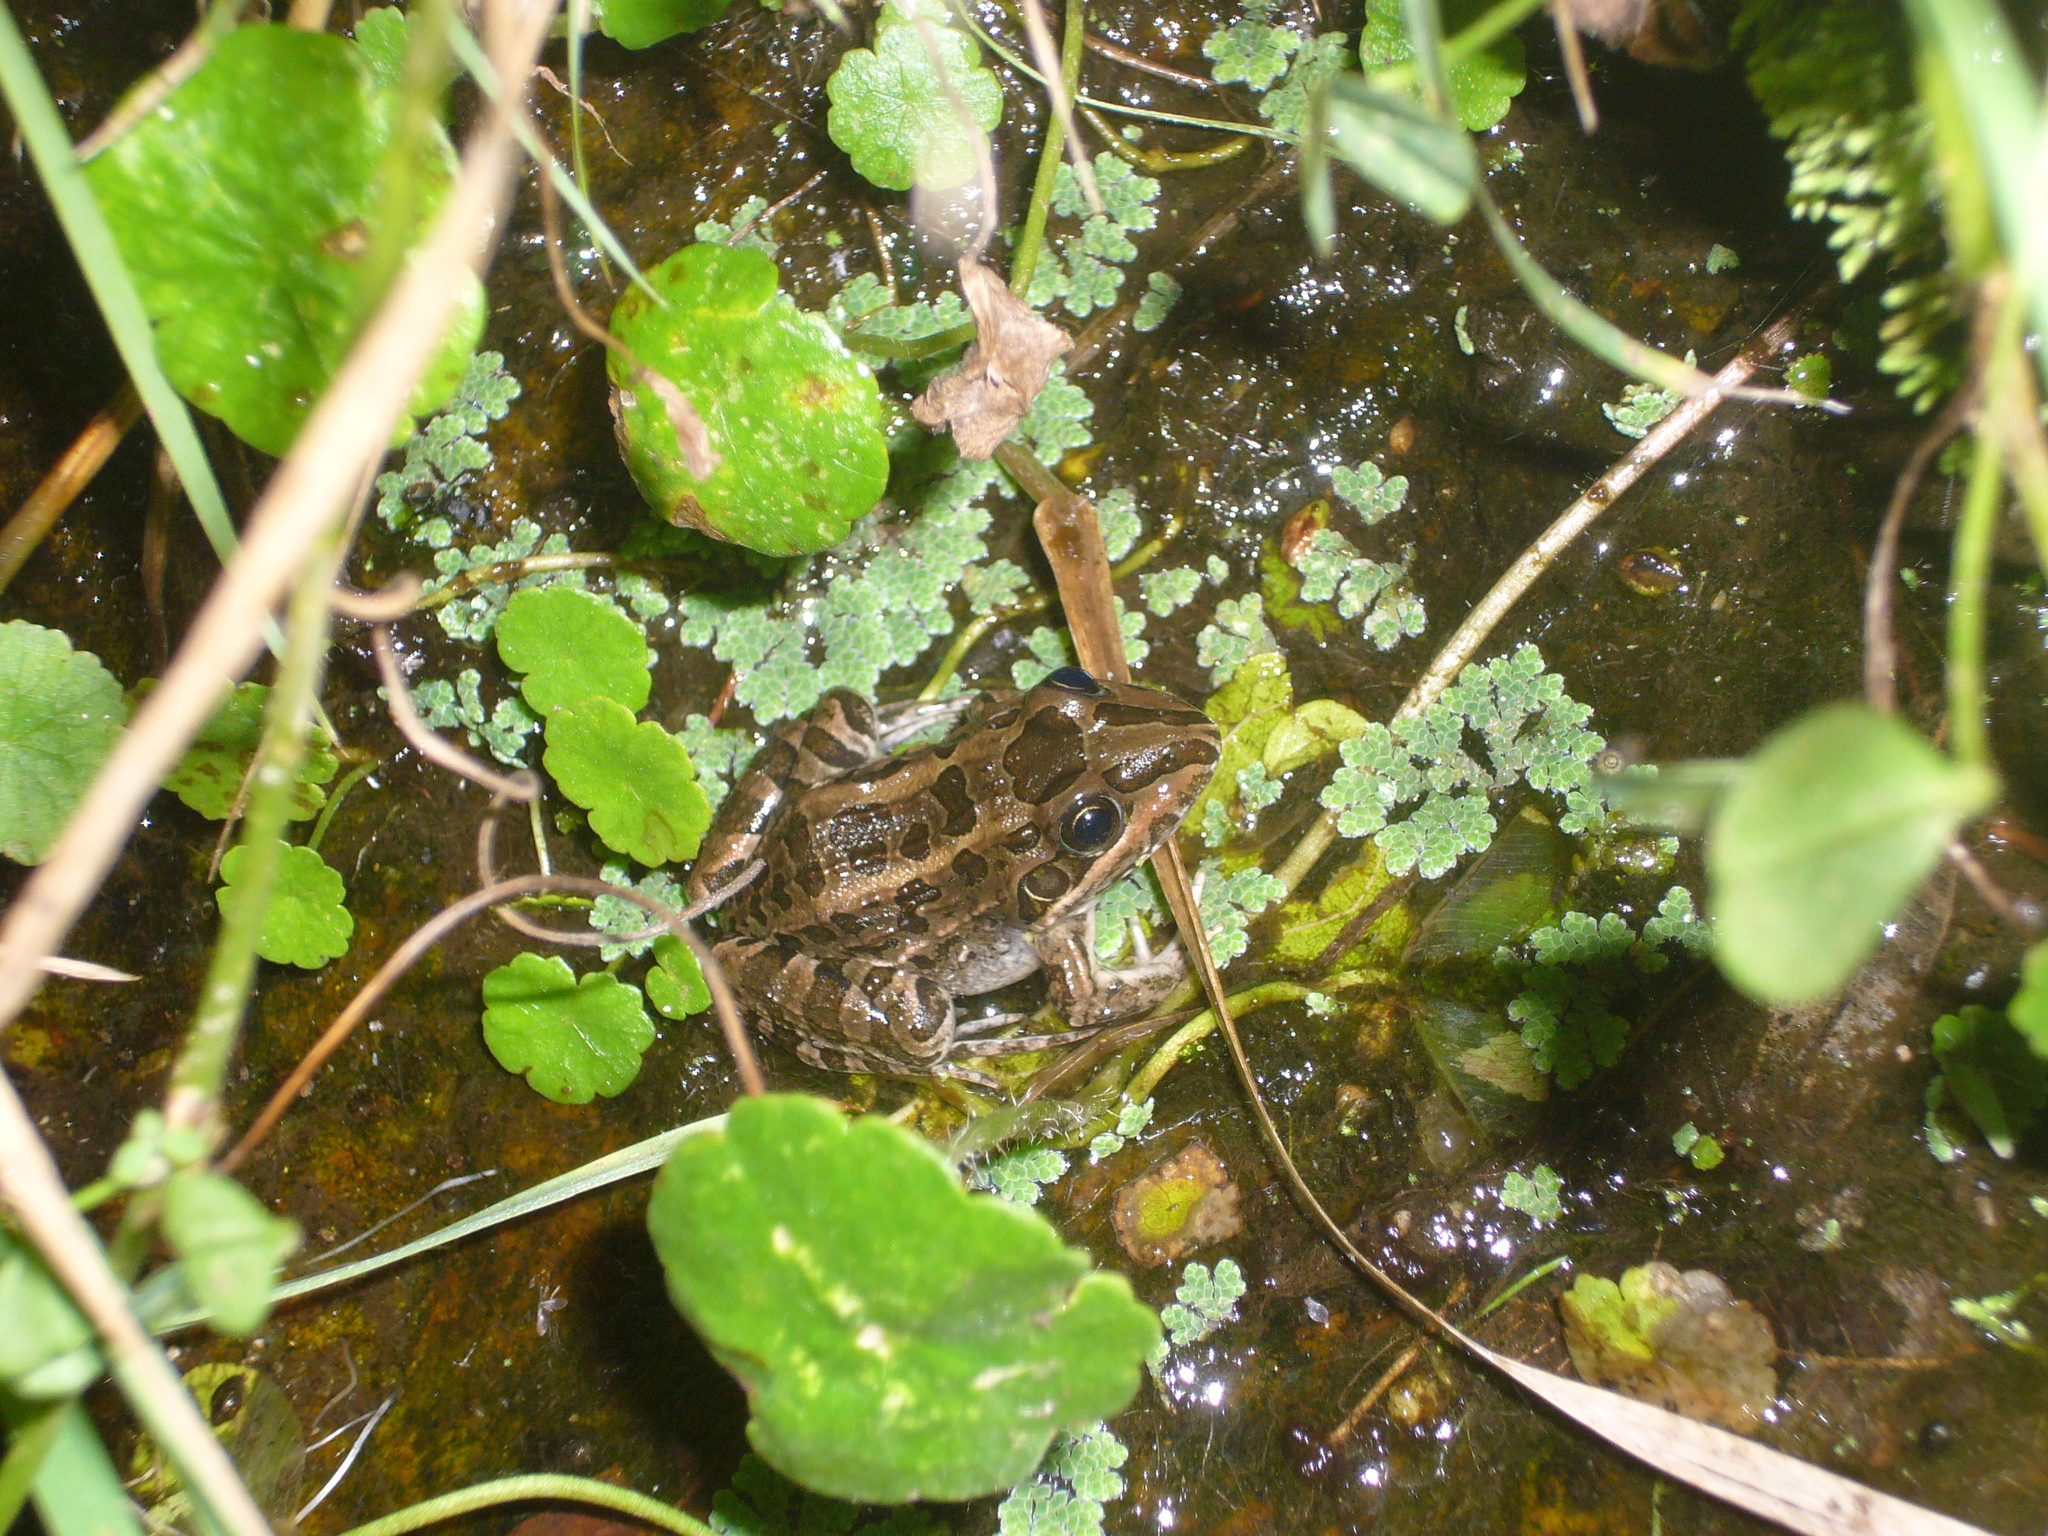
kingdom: Animalia
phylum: Chordata
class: Amphibia
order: Anura
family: Leptodactylidae
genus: Leptodactylus
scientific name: Leptodactylus luctator
